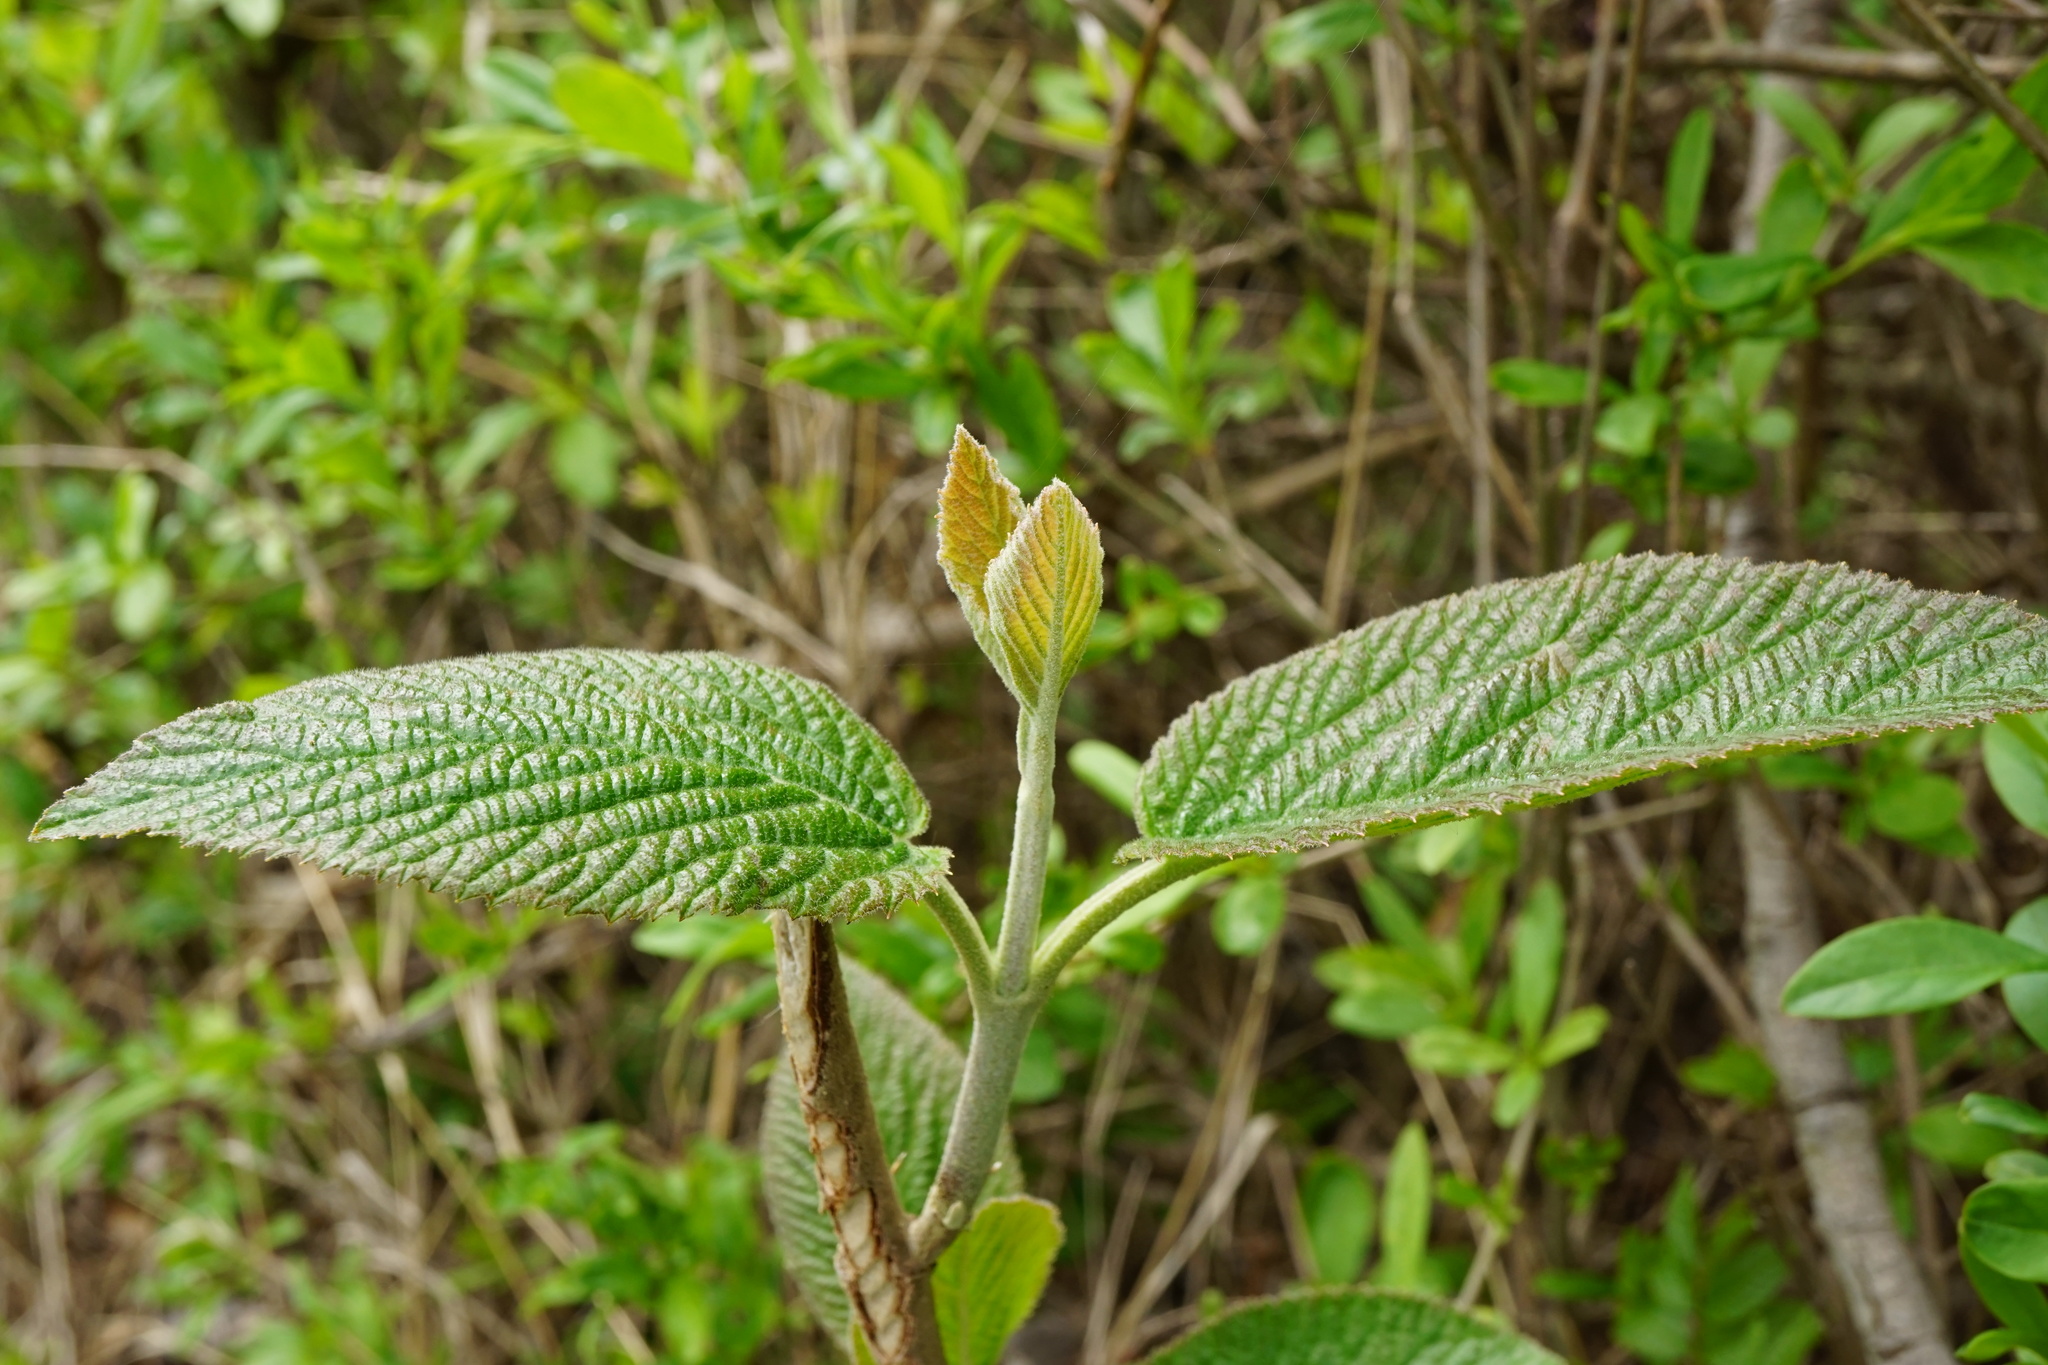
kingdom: Plantae
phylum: Tracheophyta
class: Magnoliopsida
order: Dipsacales
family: Viburnaceae
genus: Viburnum
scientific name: Viburnum lantana
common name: Wayfaring tree
